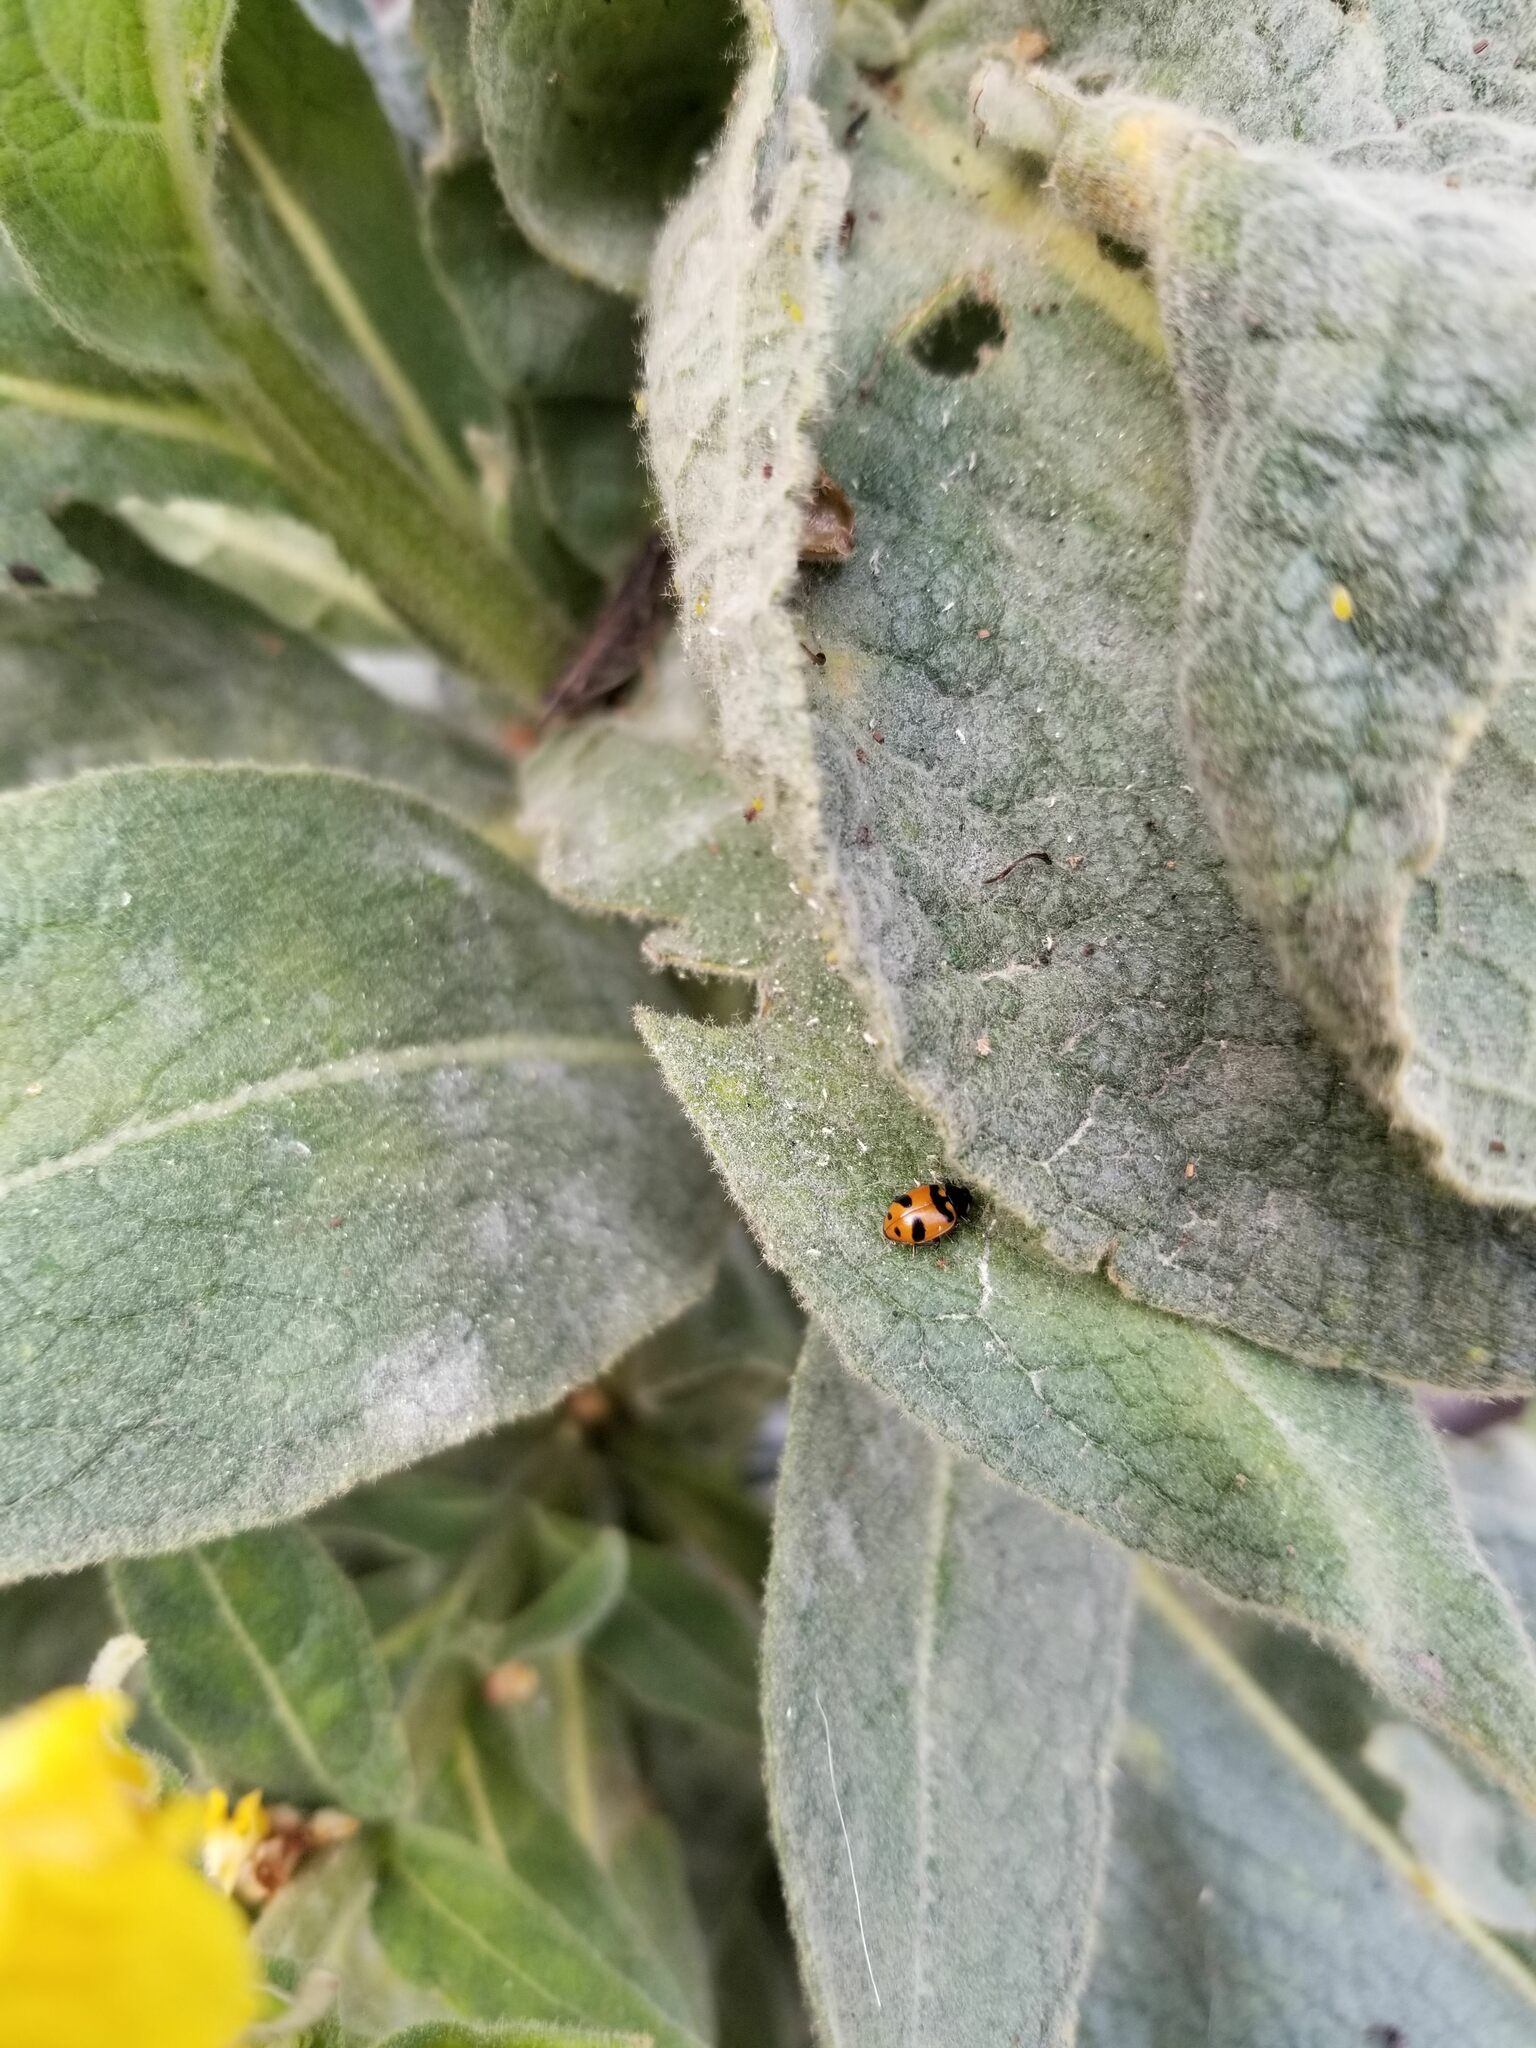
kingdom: Animalia
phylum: Arthropoda
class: Insecta
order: Coleoptera
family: Coccinellidae
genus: Hippodamia
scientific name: Hippodamia oregonensis
